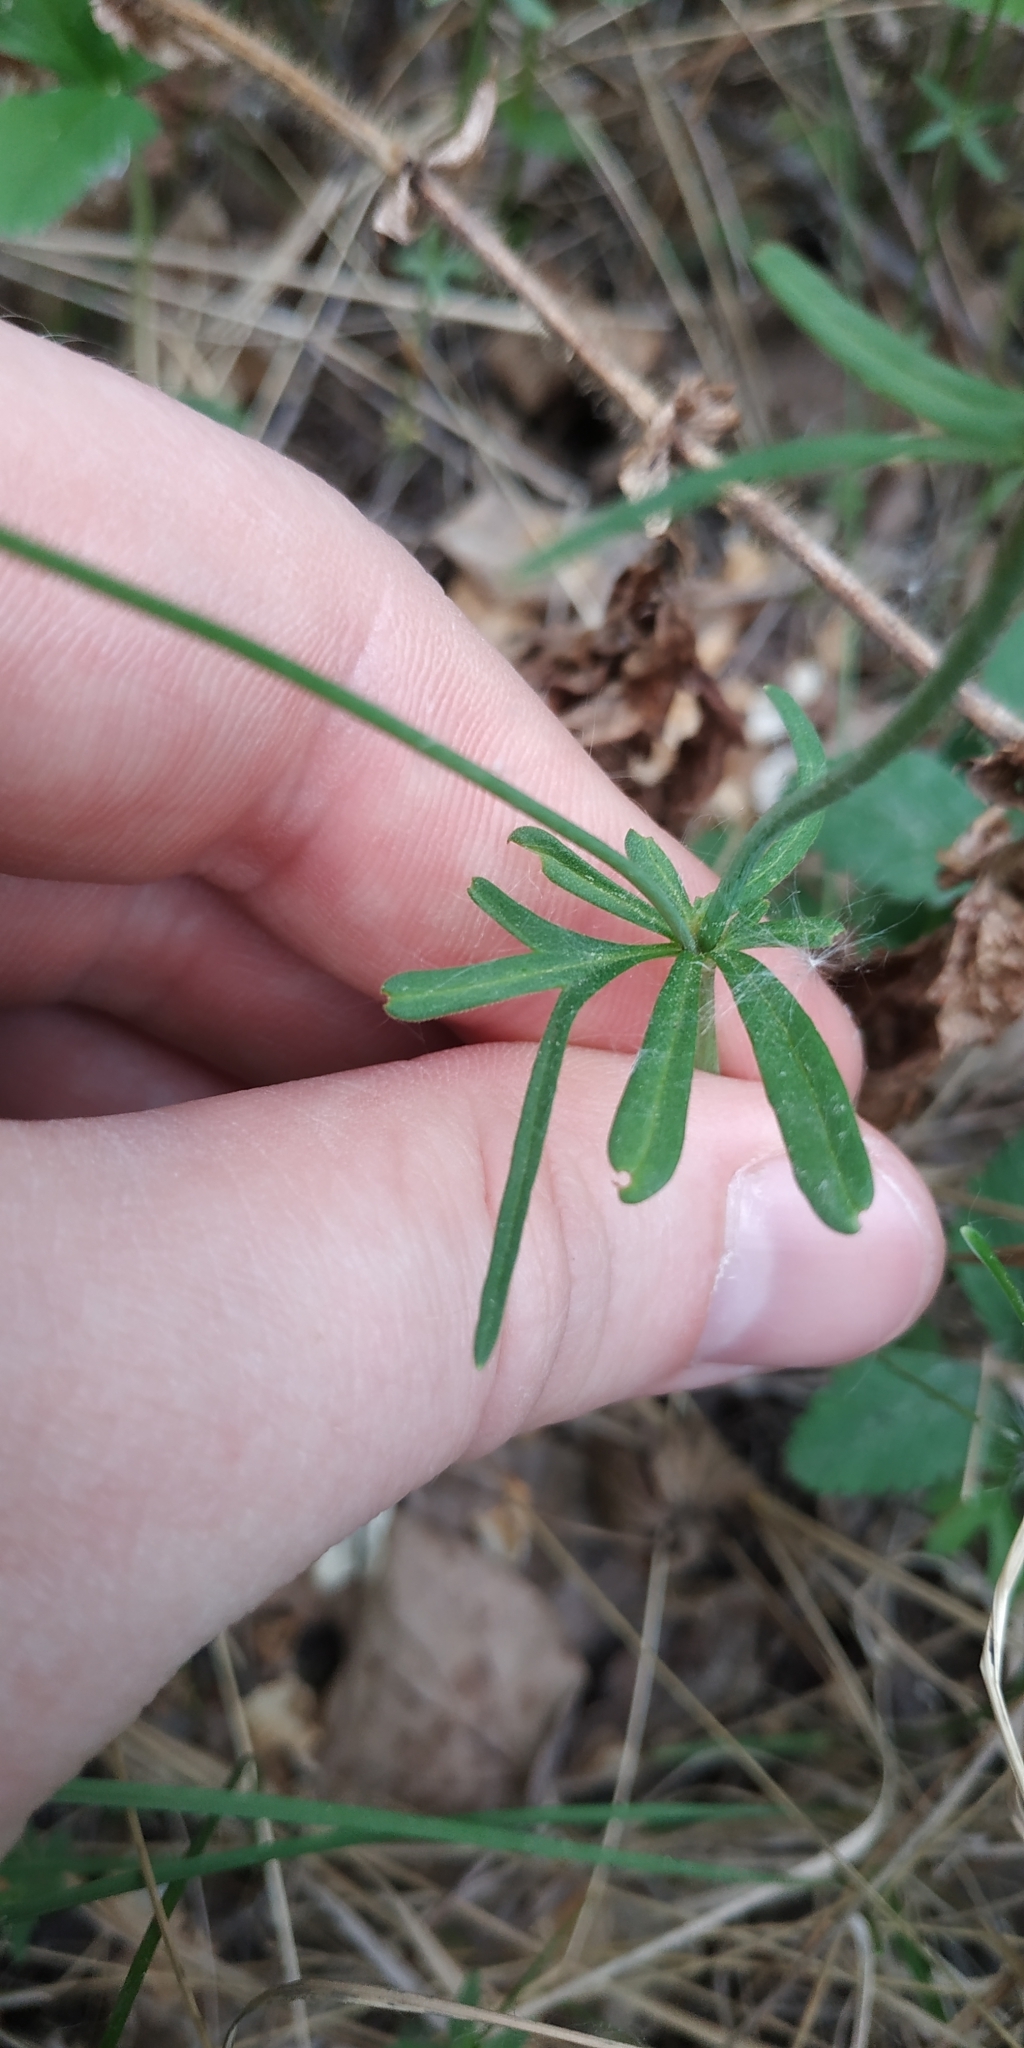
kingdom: Plantae
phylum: Tracheophyta
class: Magnoliopsida
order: Ranunculales
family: Ranunculaceae
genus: Ranunculus
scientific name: Ranunculus auricomus
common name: Goldilocks buttercup
